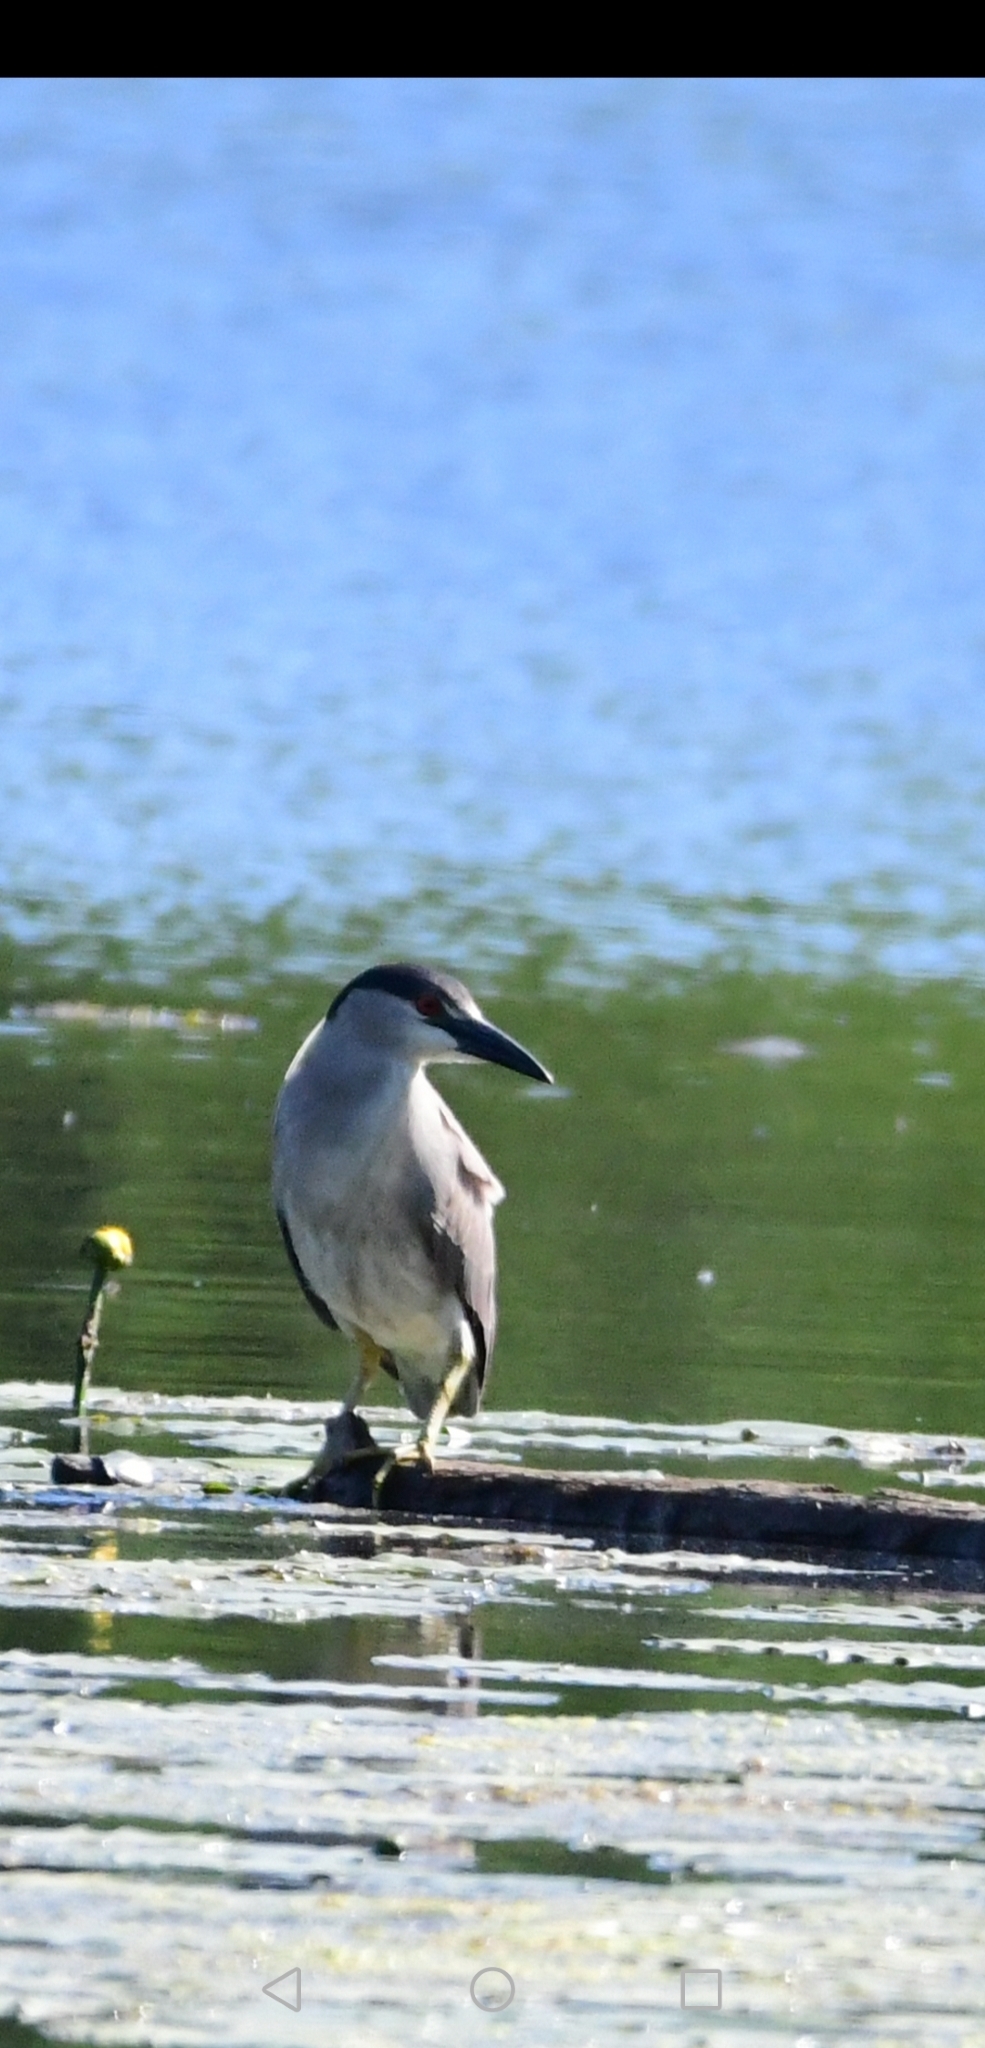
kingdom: Animalia
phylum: Chordata
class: Aves
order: Pelecaniformes
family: Ardeidae
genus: Nycticorax
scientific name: Nycticorax nycticorax
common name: Black-crowned night heron
